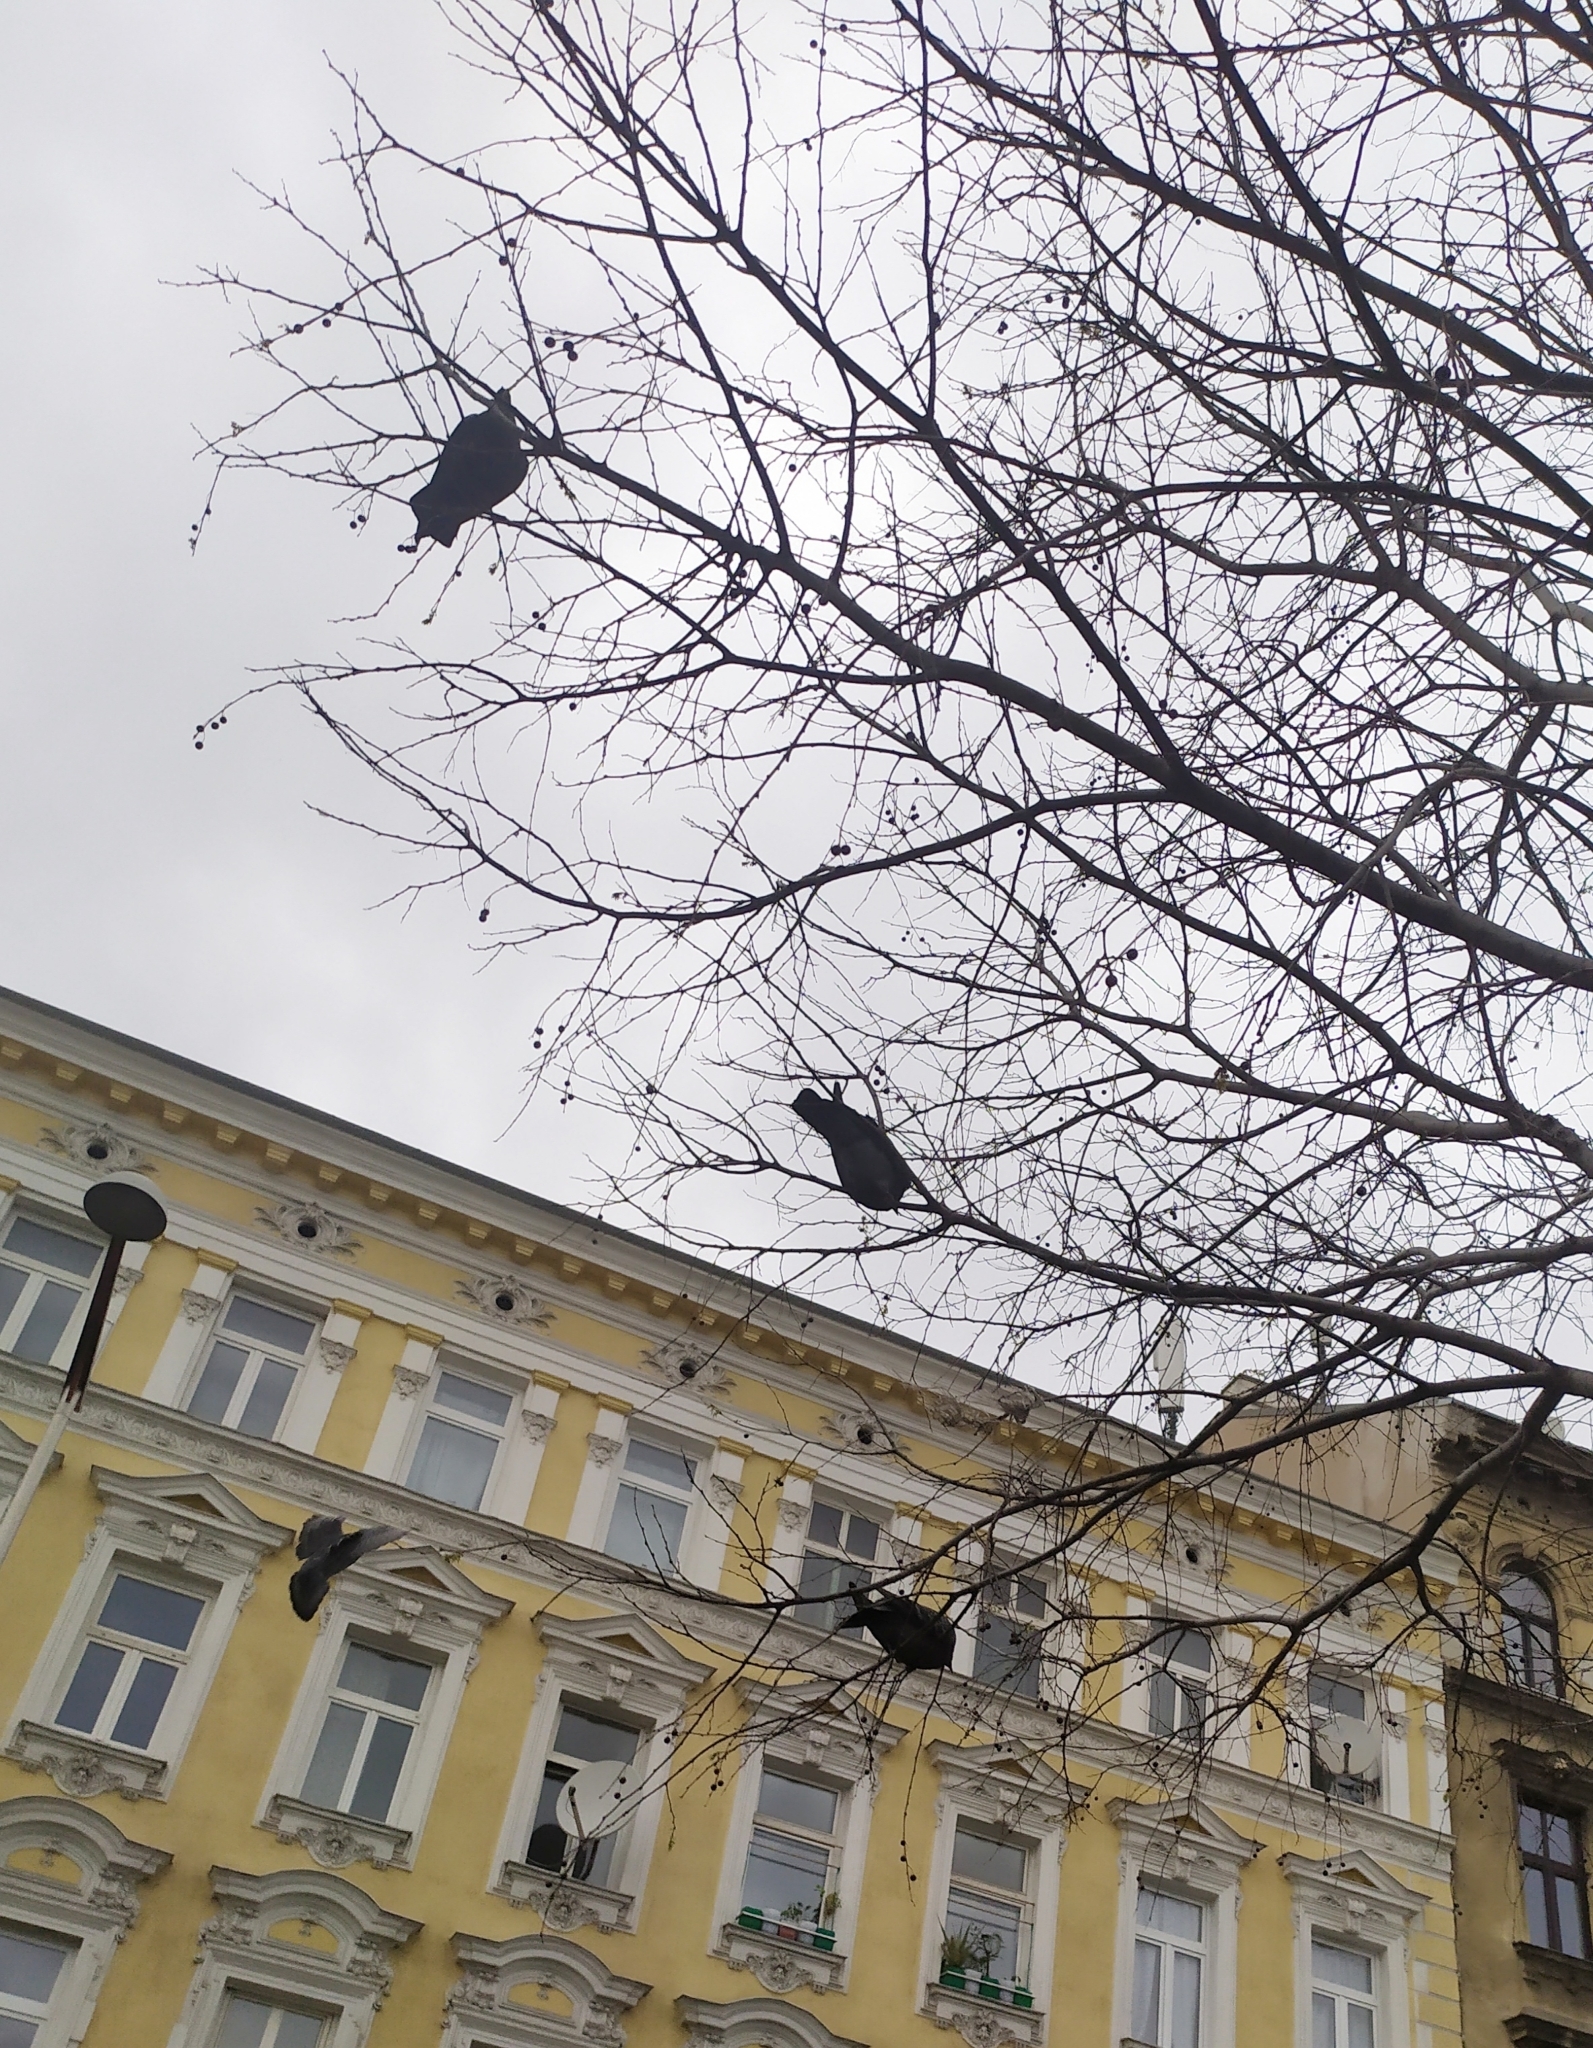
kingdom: Animalia
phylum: Chordata
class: Aves
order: Columbiformes
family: Columbidae
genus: Columba
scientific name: Columba livia
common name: Rock pigeon
